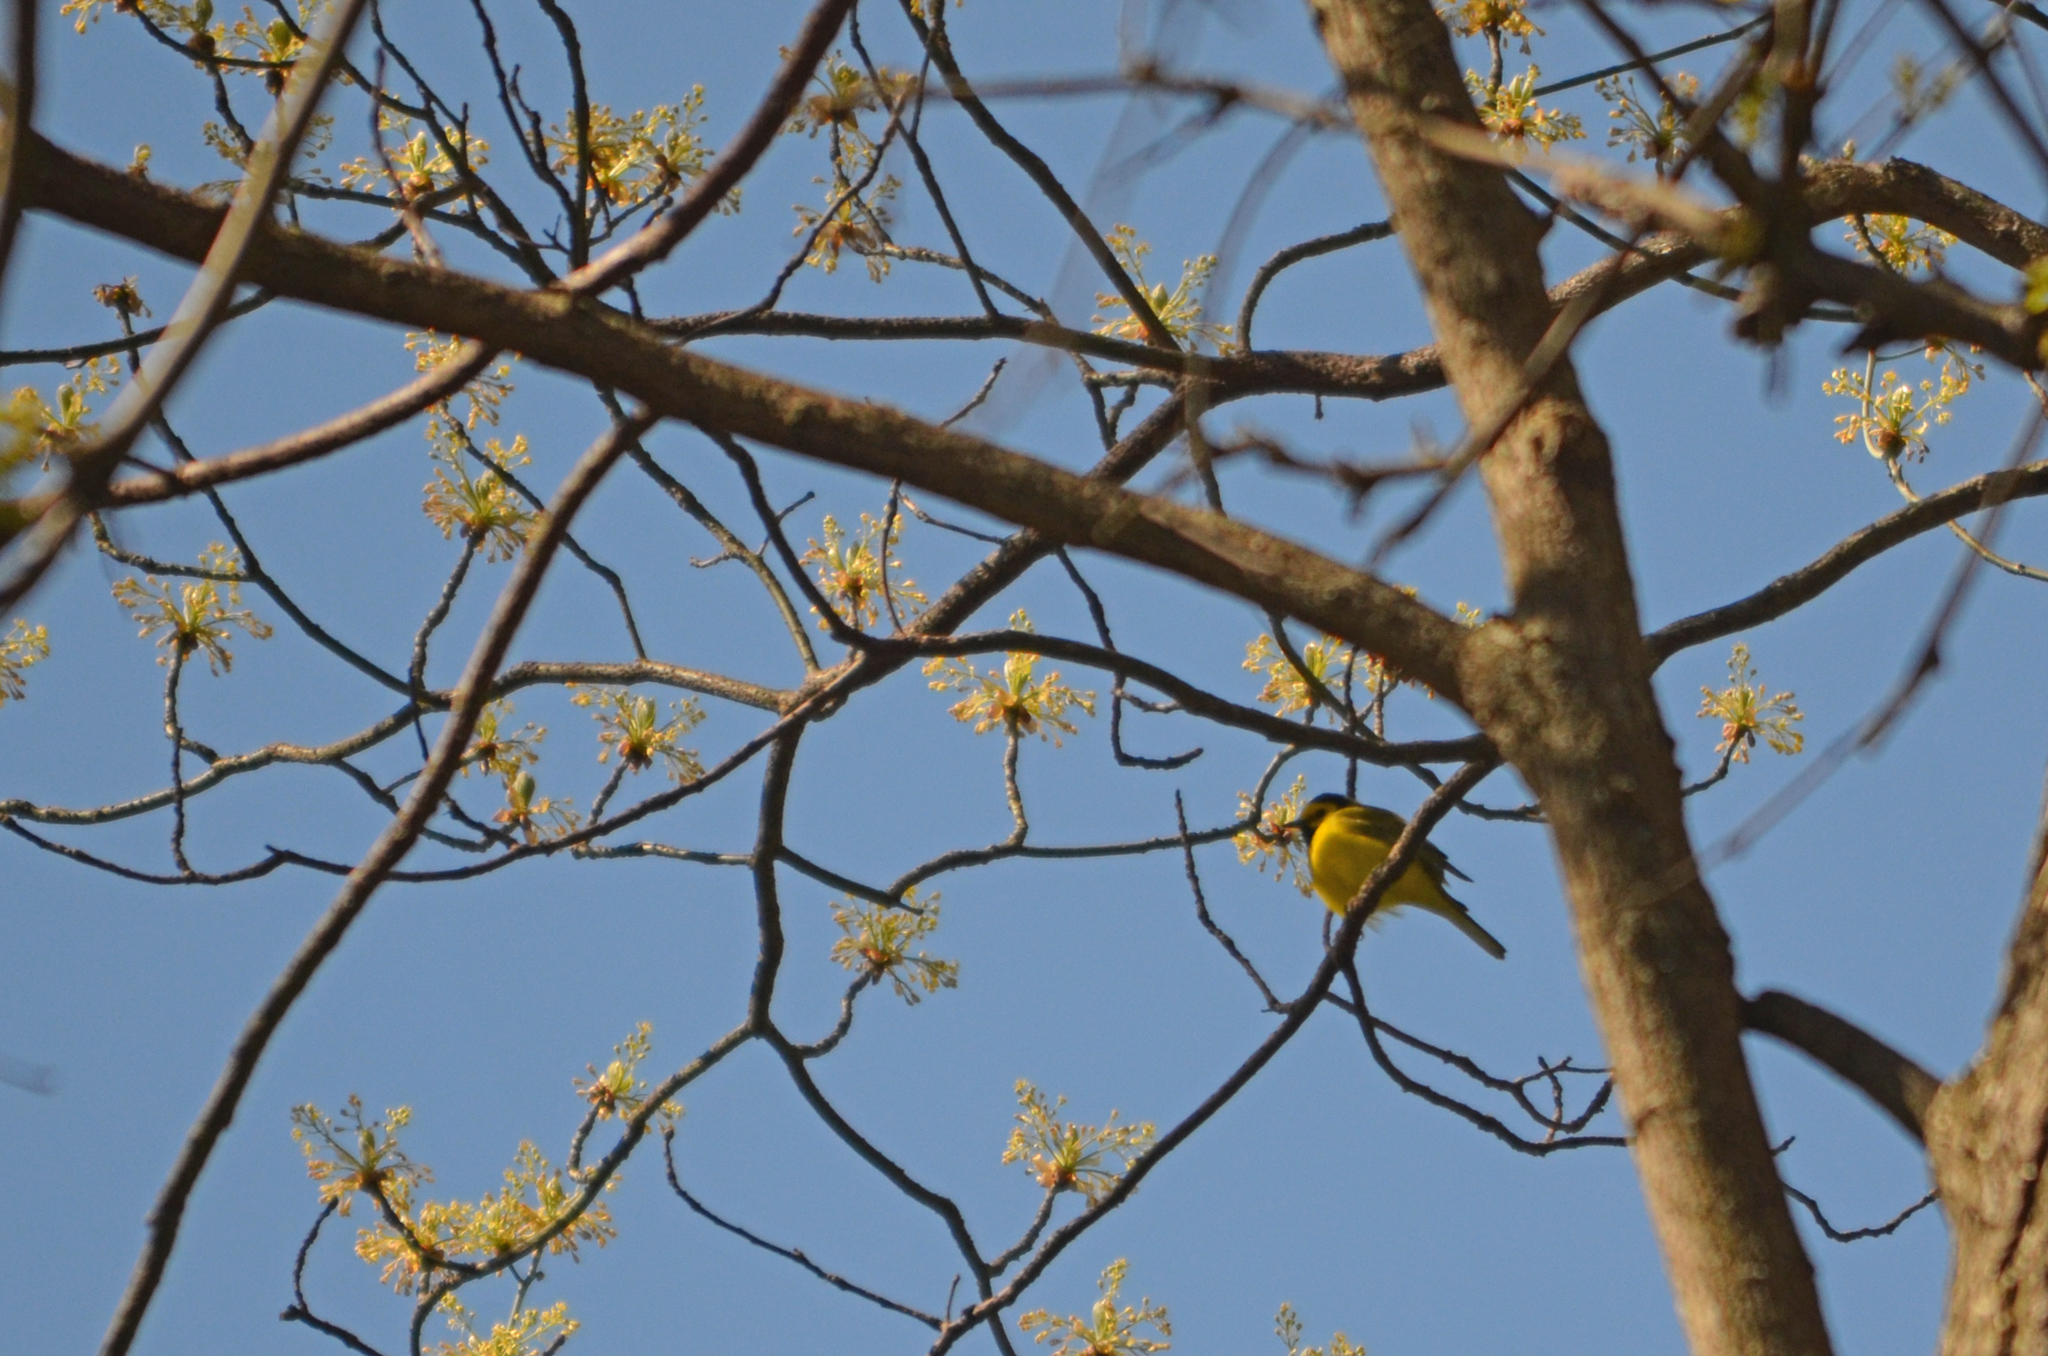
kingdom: Animalia
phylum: Chordata
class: Aves
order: Passeriformes
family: Parulidae
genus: Setophaga
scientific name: Setophaga citrina
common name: Hooded warbler
